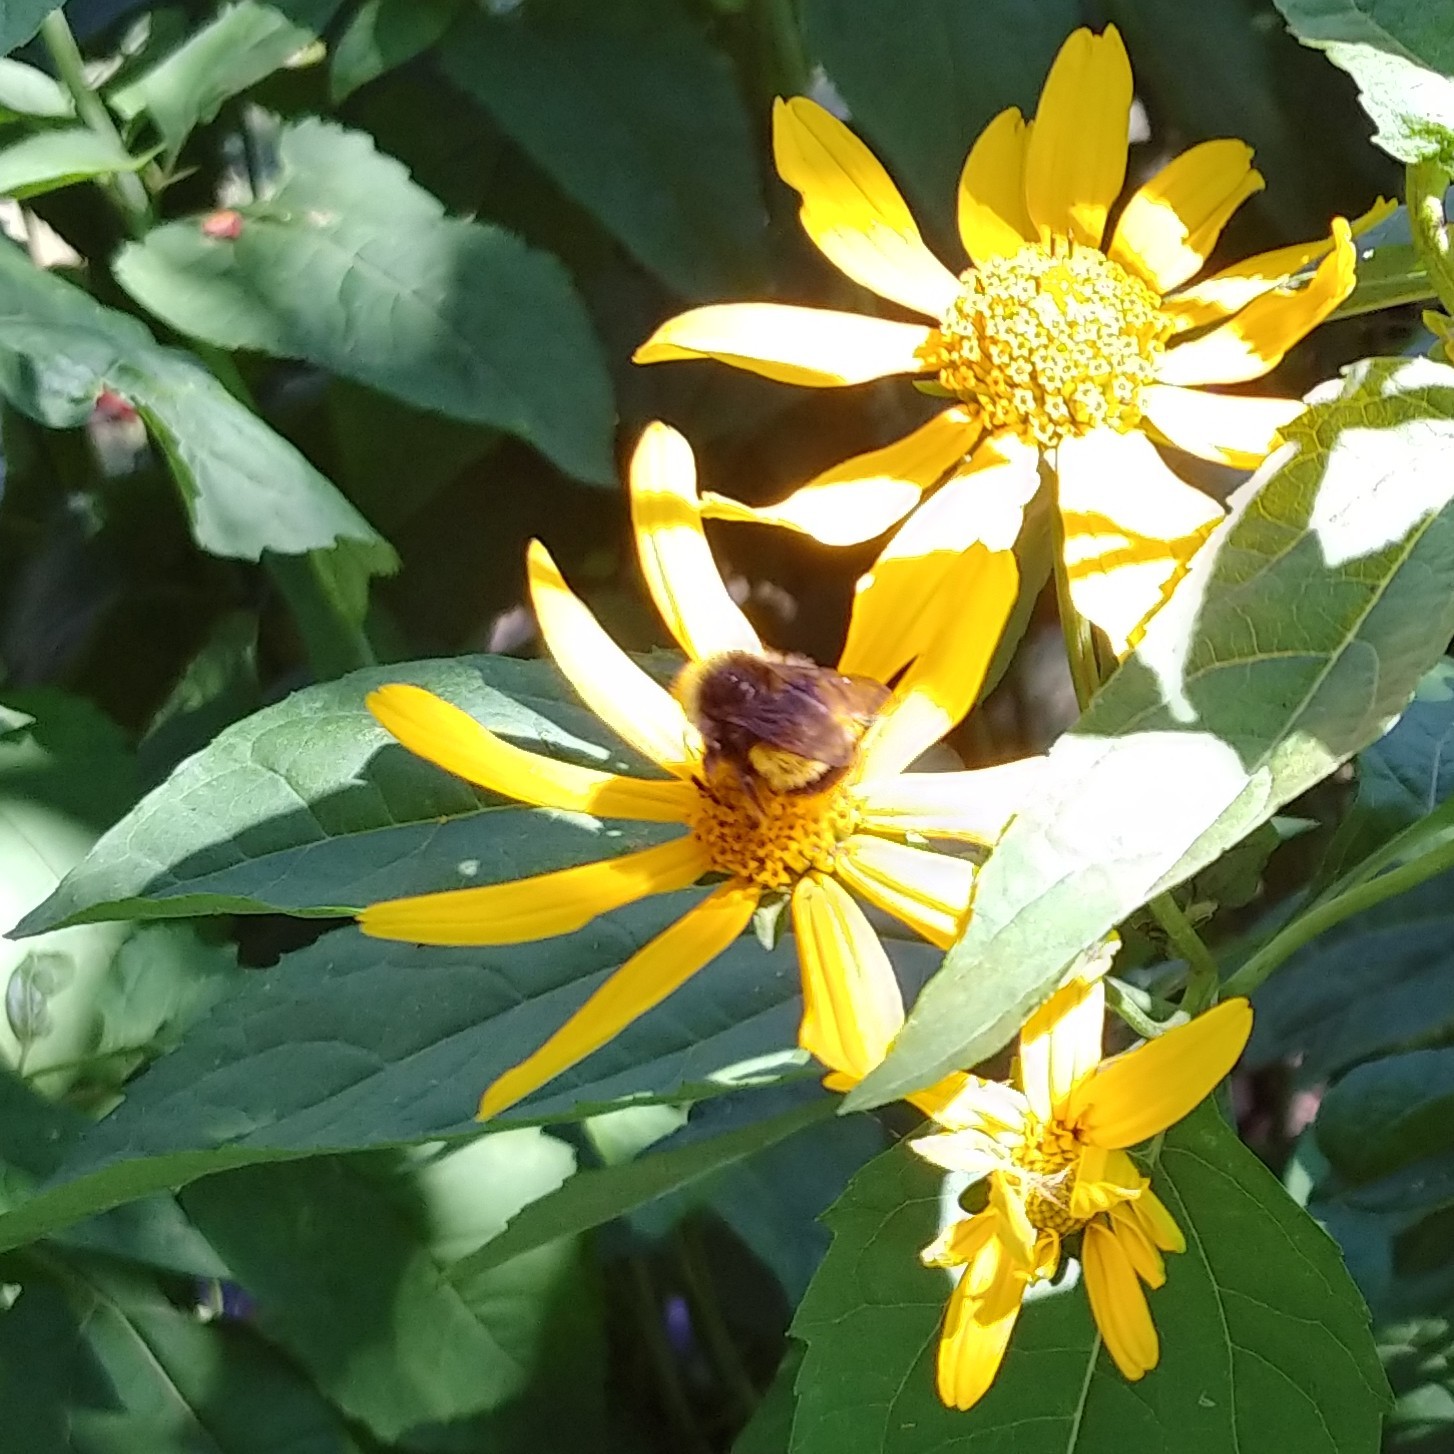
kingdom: Animalia
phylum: Arthropoda
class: Insecta
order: Hymenoptera
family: Apidae
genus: Bombus
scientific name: Bombus terricola
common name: Yellow-banded bumble bee
